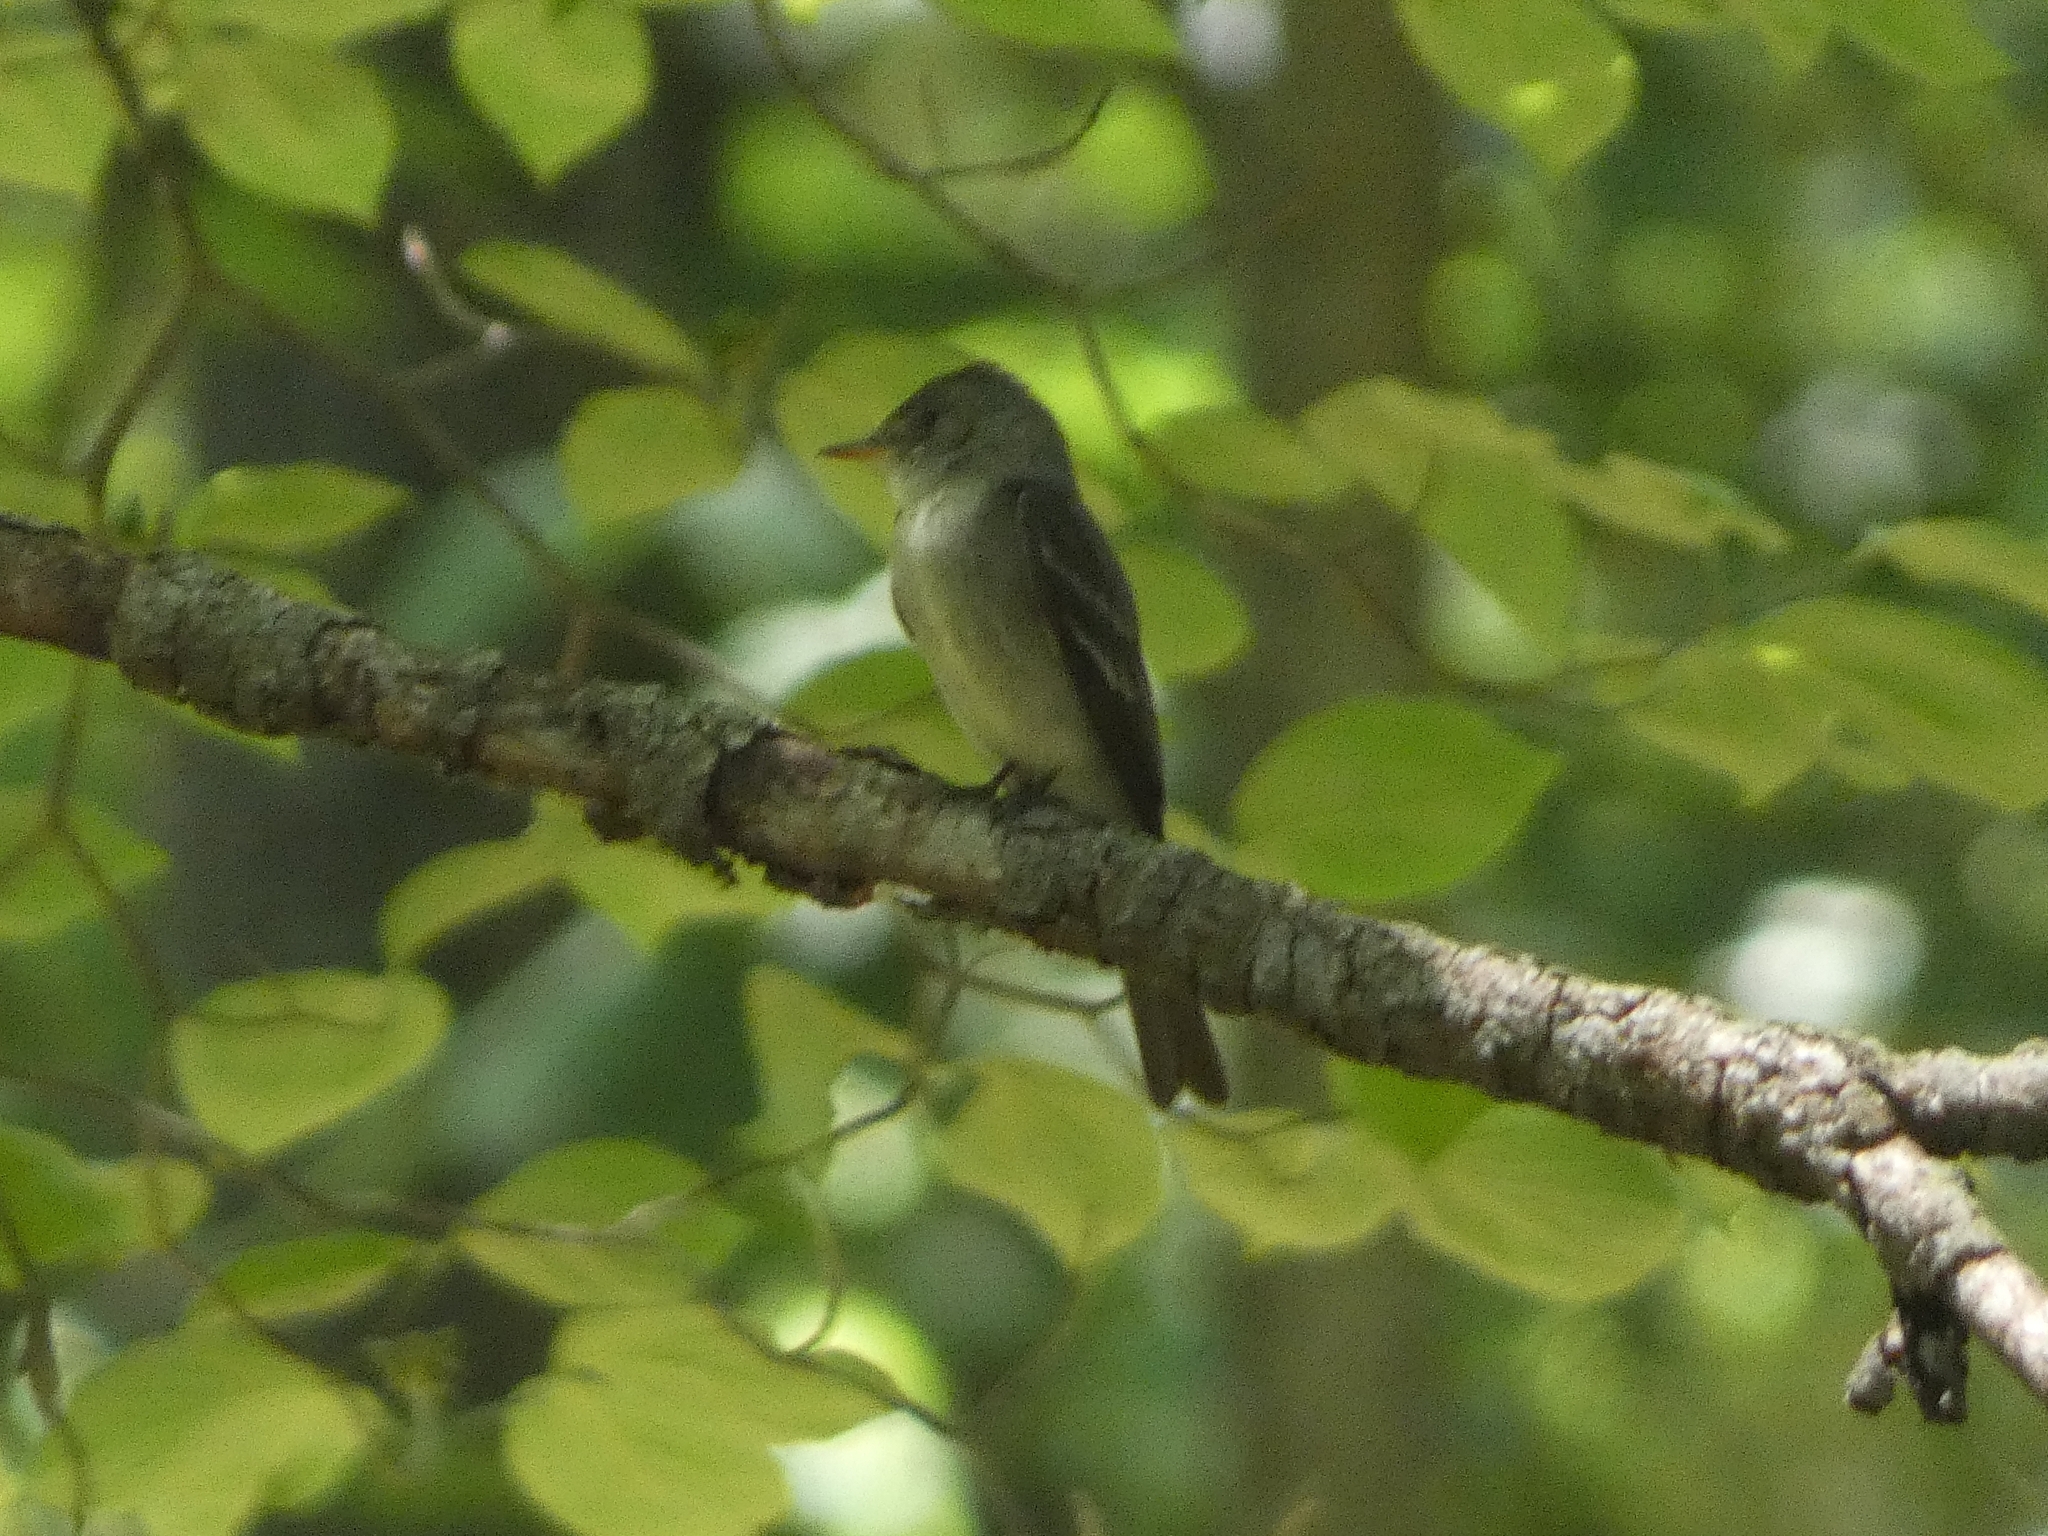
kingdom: Animalia
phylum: Chordata
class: Aves
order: Passeriformes
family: Tyrannidae
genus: Contopus
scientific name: Contopus virens
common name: Eastern wood-pewee
